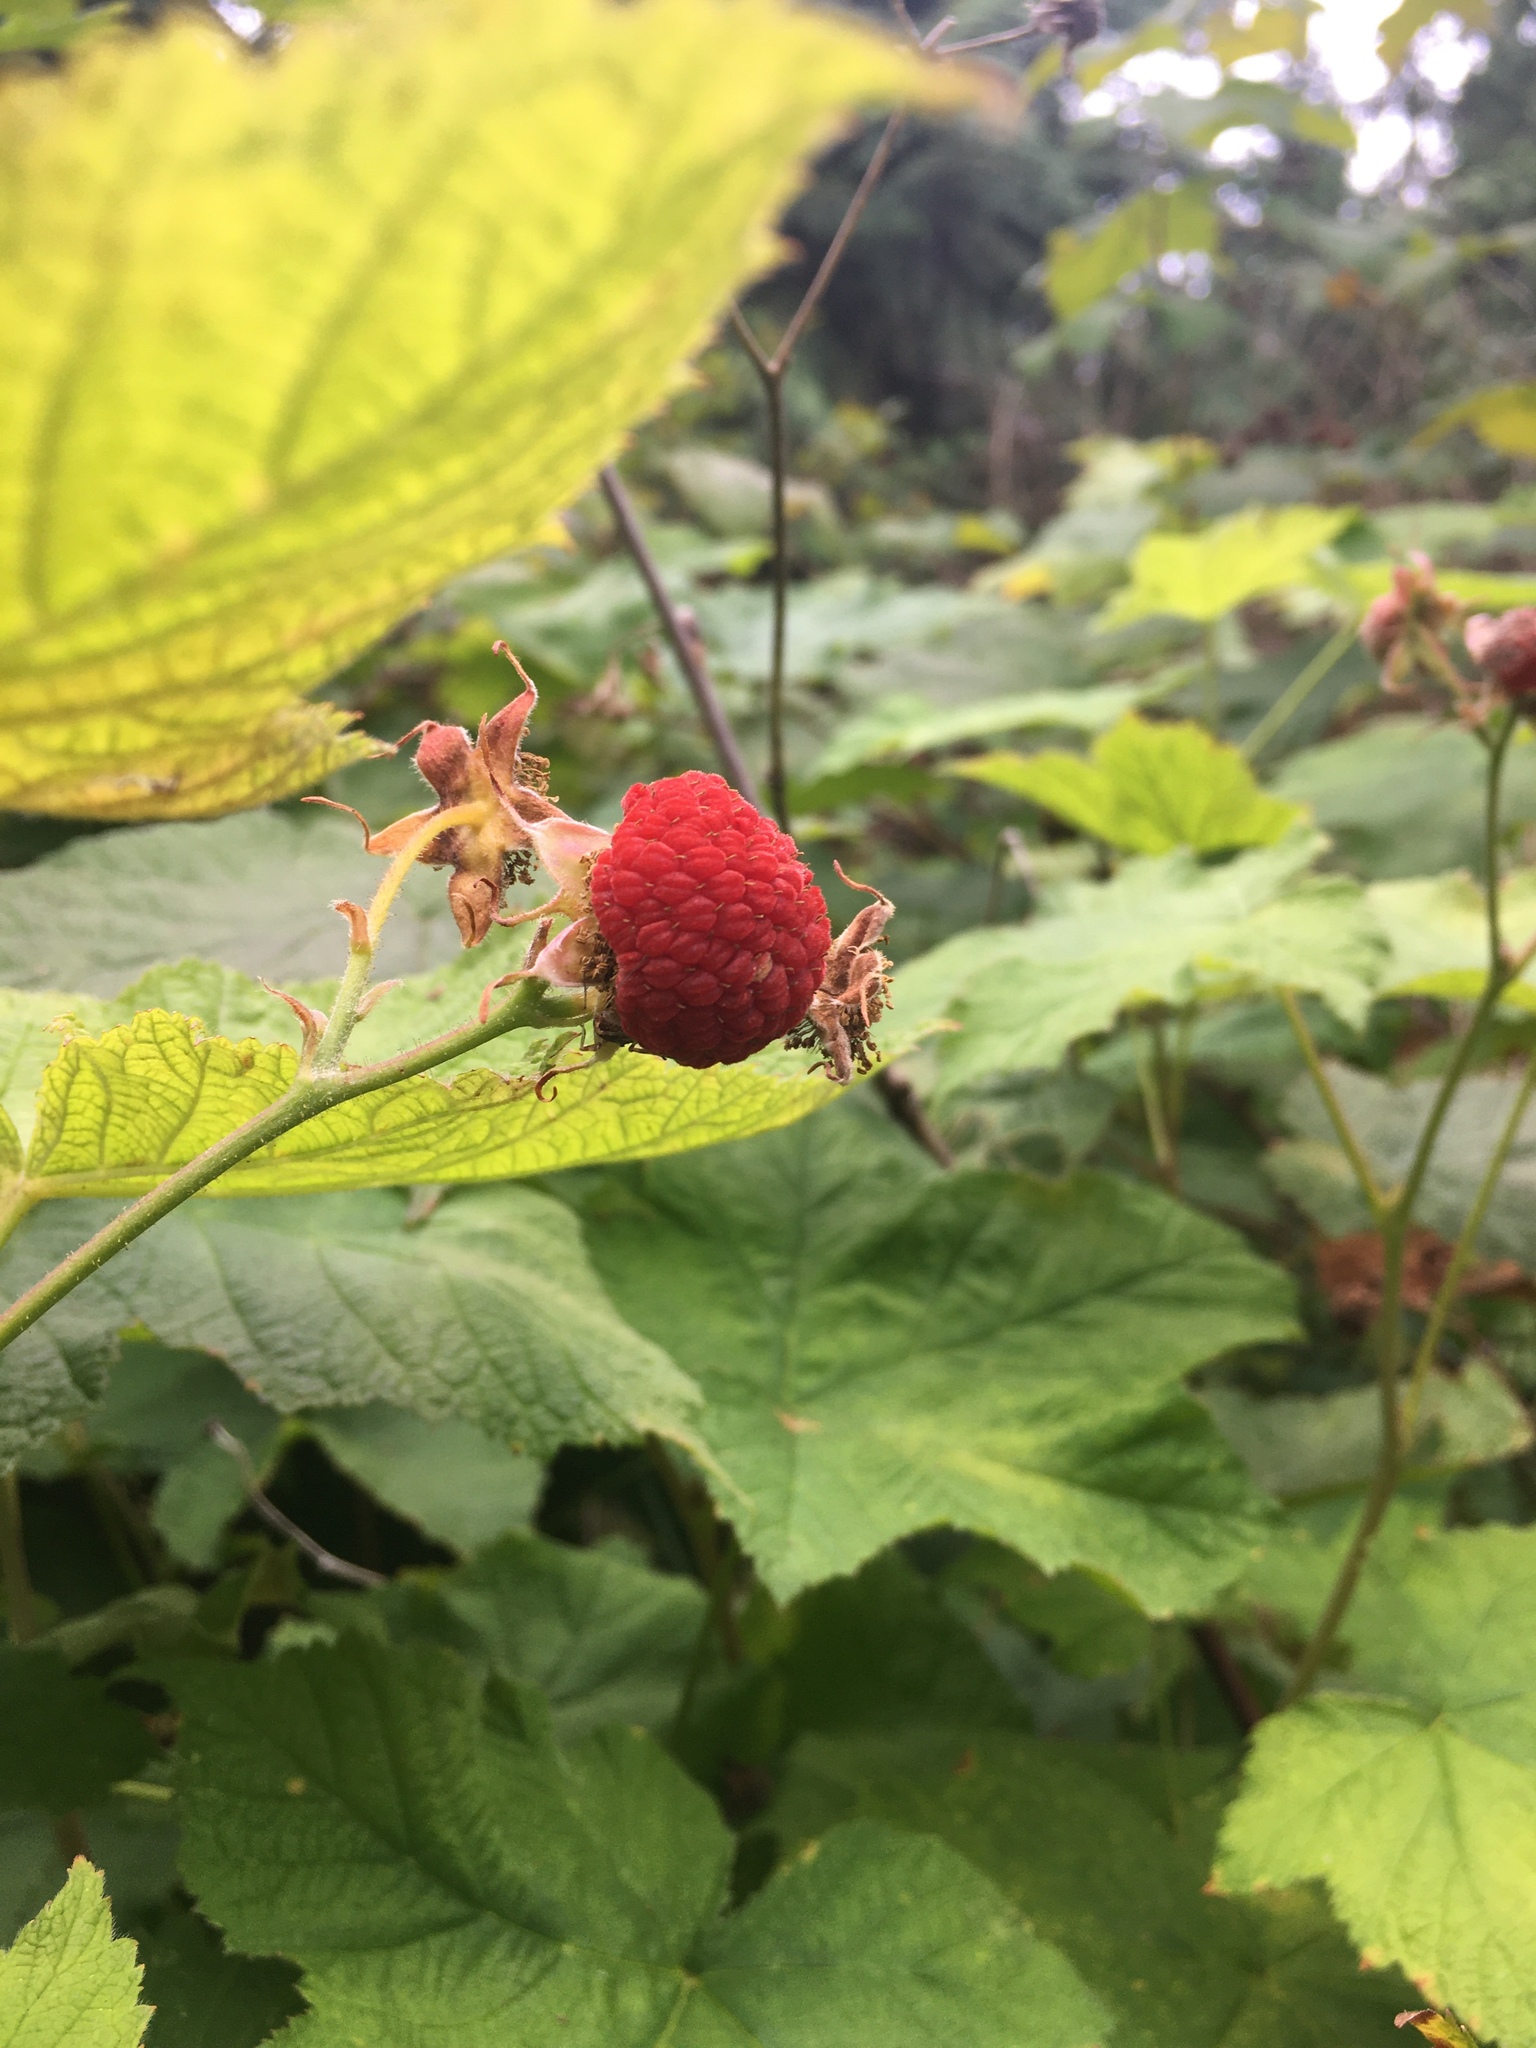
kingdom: Plantae
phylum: Tracheophyta
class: Magnoliopsida
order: Rosales
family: Rosaceae
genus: Rubus
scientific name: Rubus parviflorus
